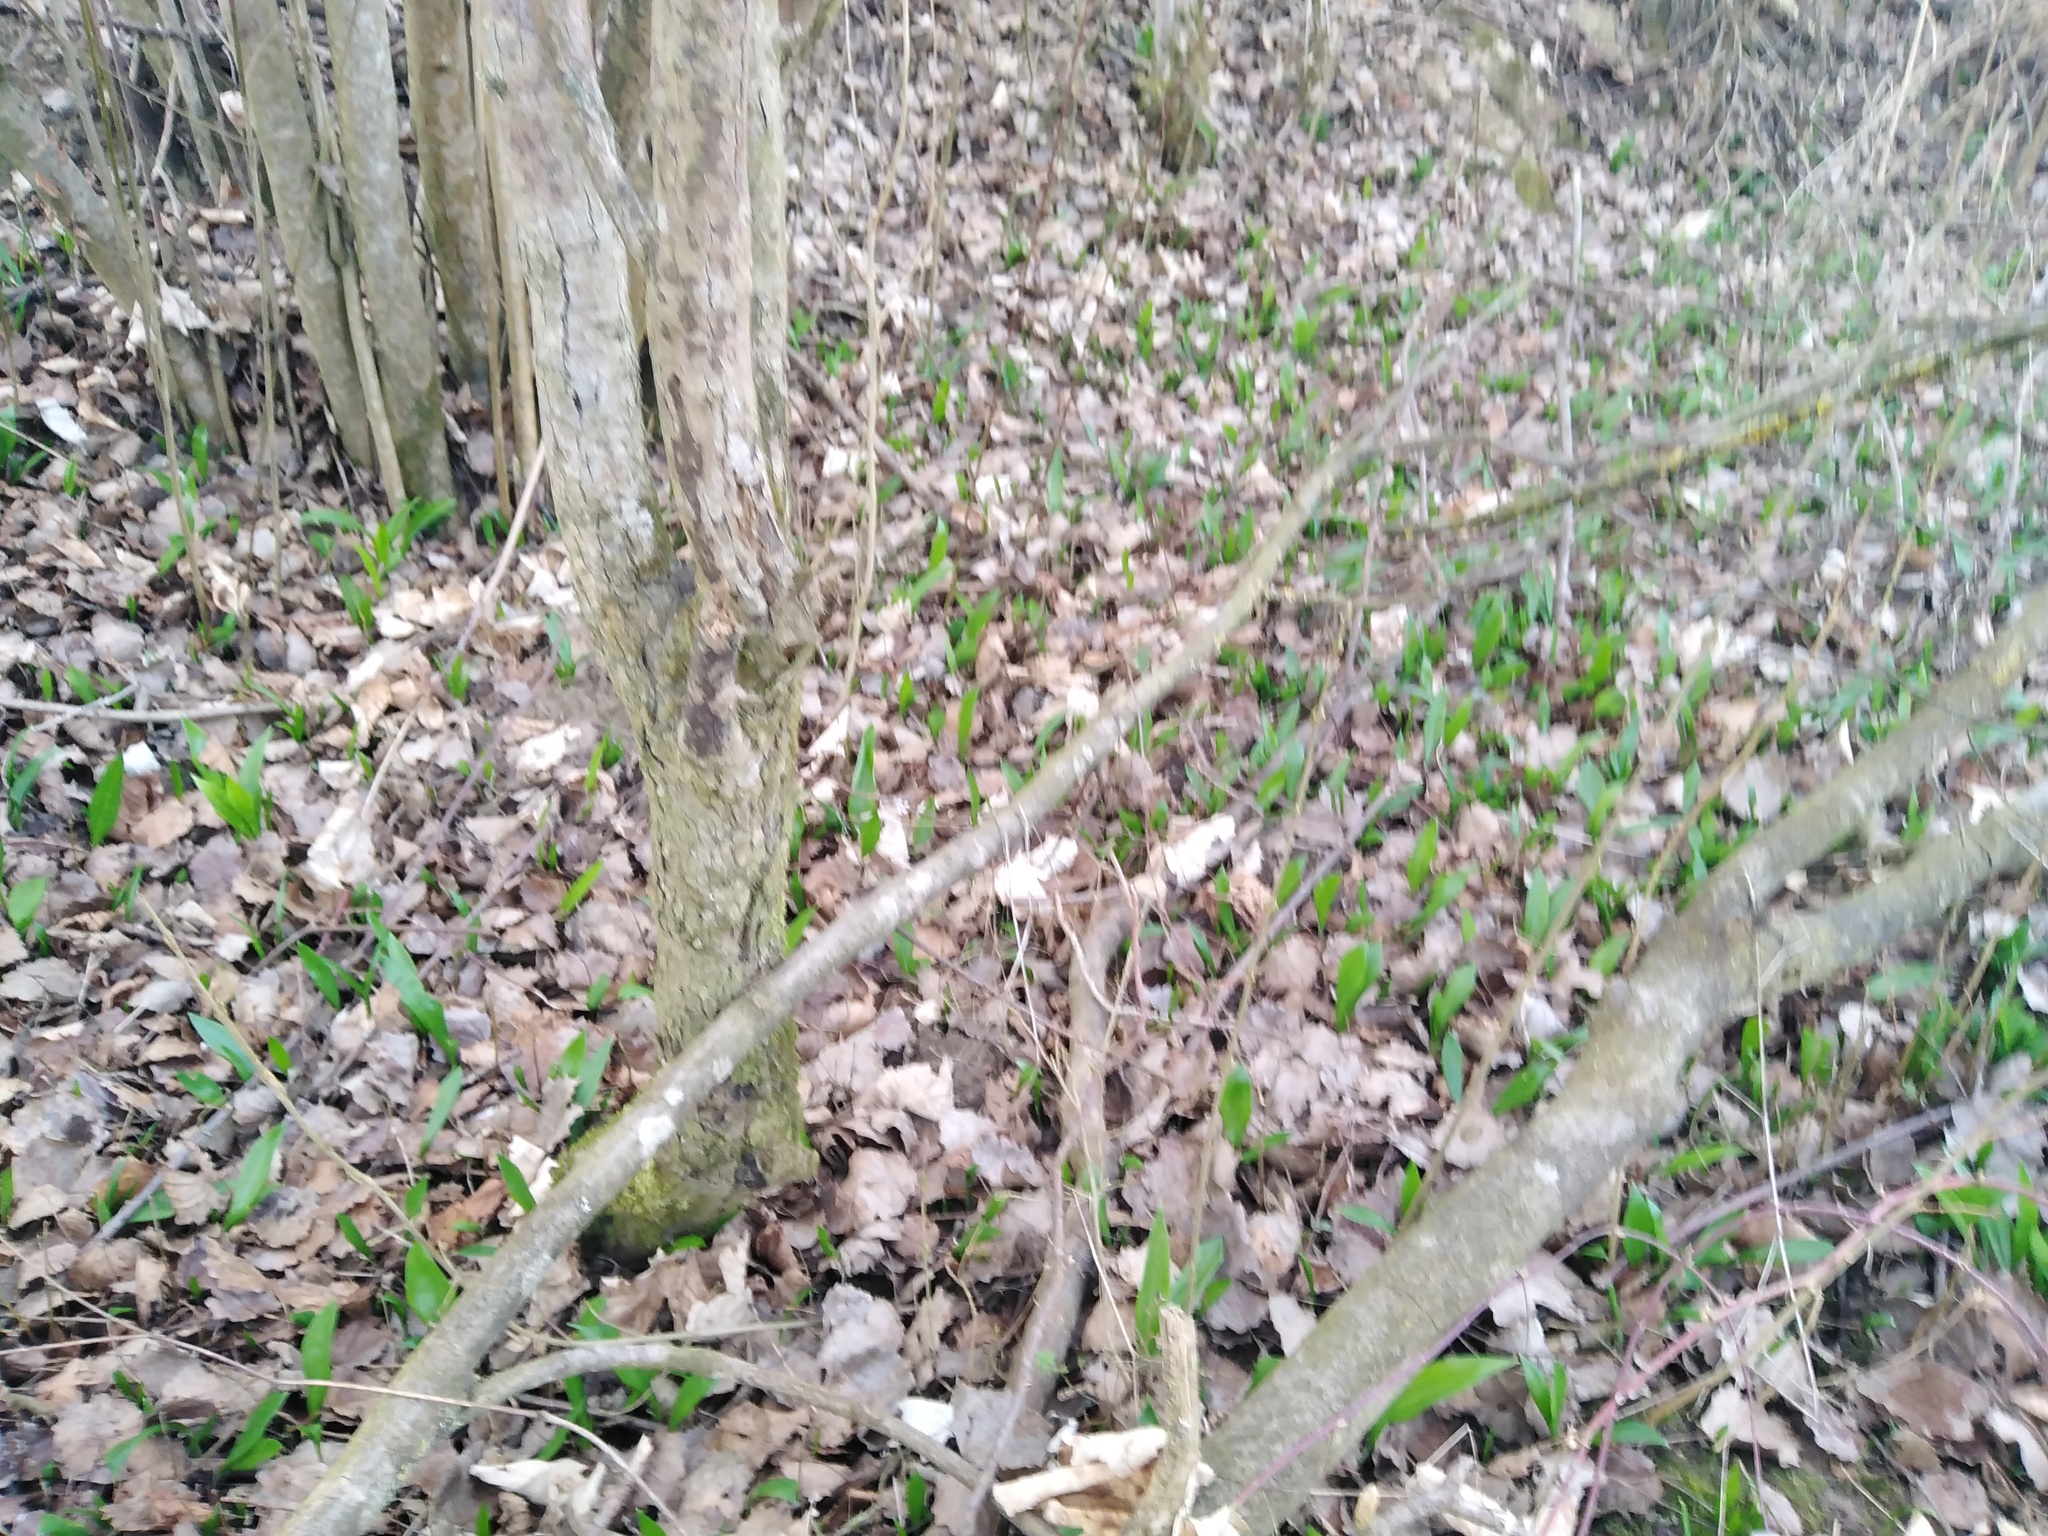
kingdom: Plantae
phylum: Tracheophyta
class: Liliopsida
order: Asparagales
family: Amaryllidaceae
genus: Allium
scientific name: Allium ursinum
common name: Ramsons
